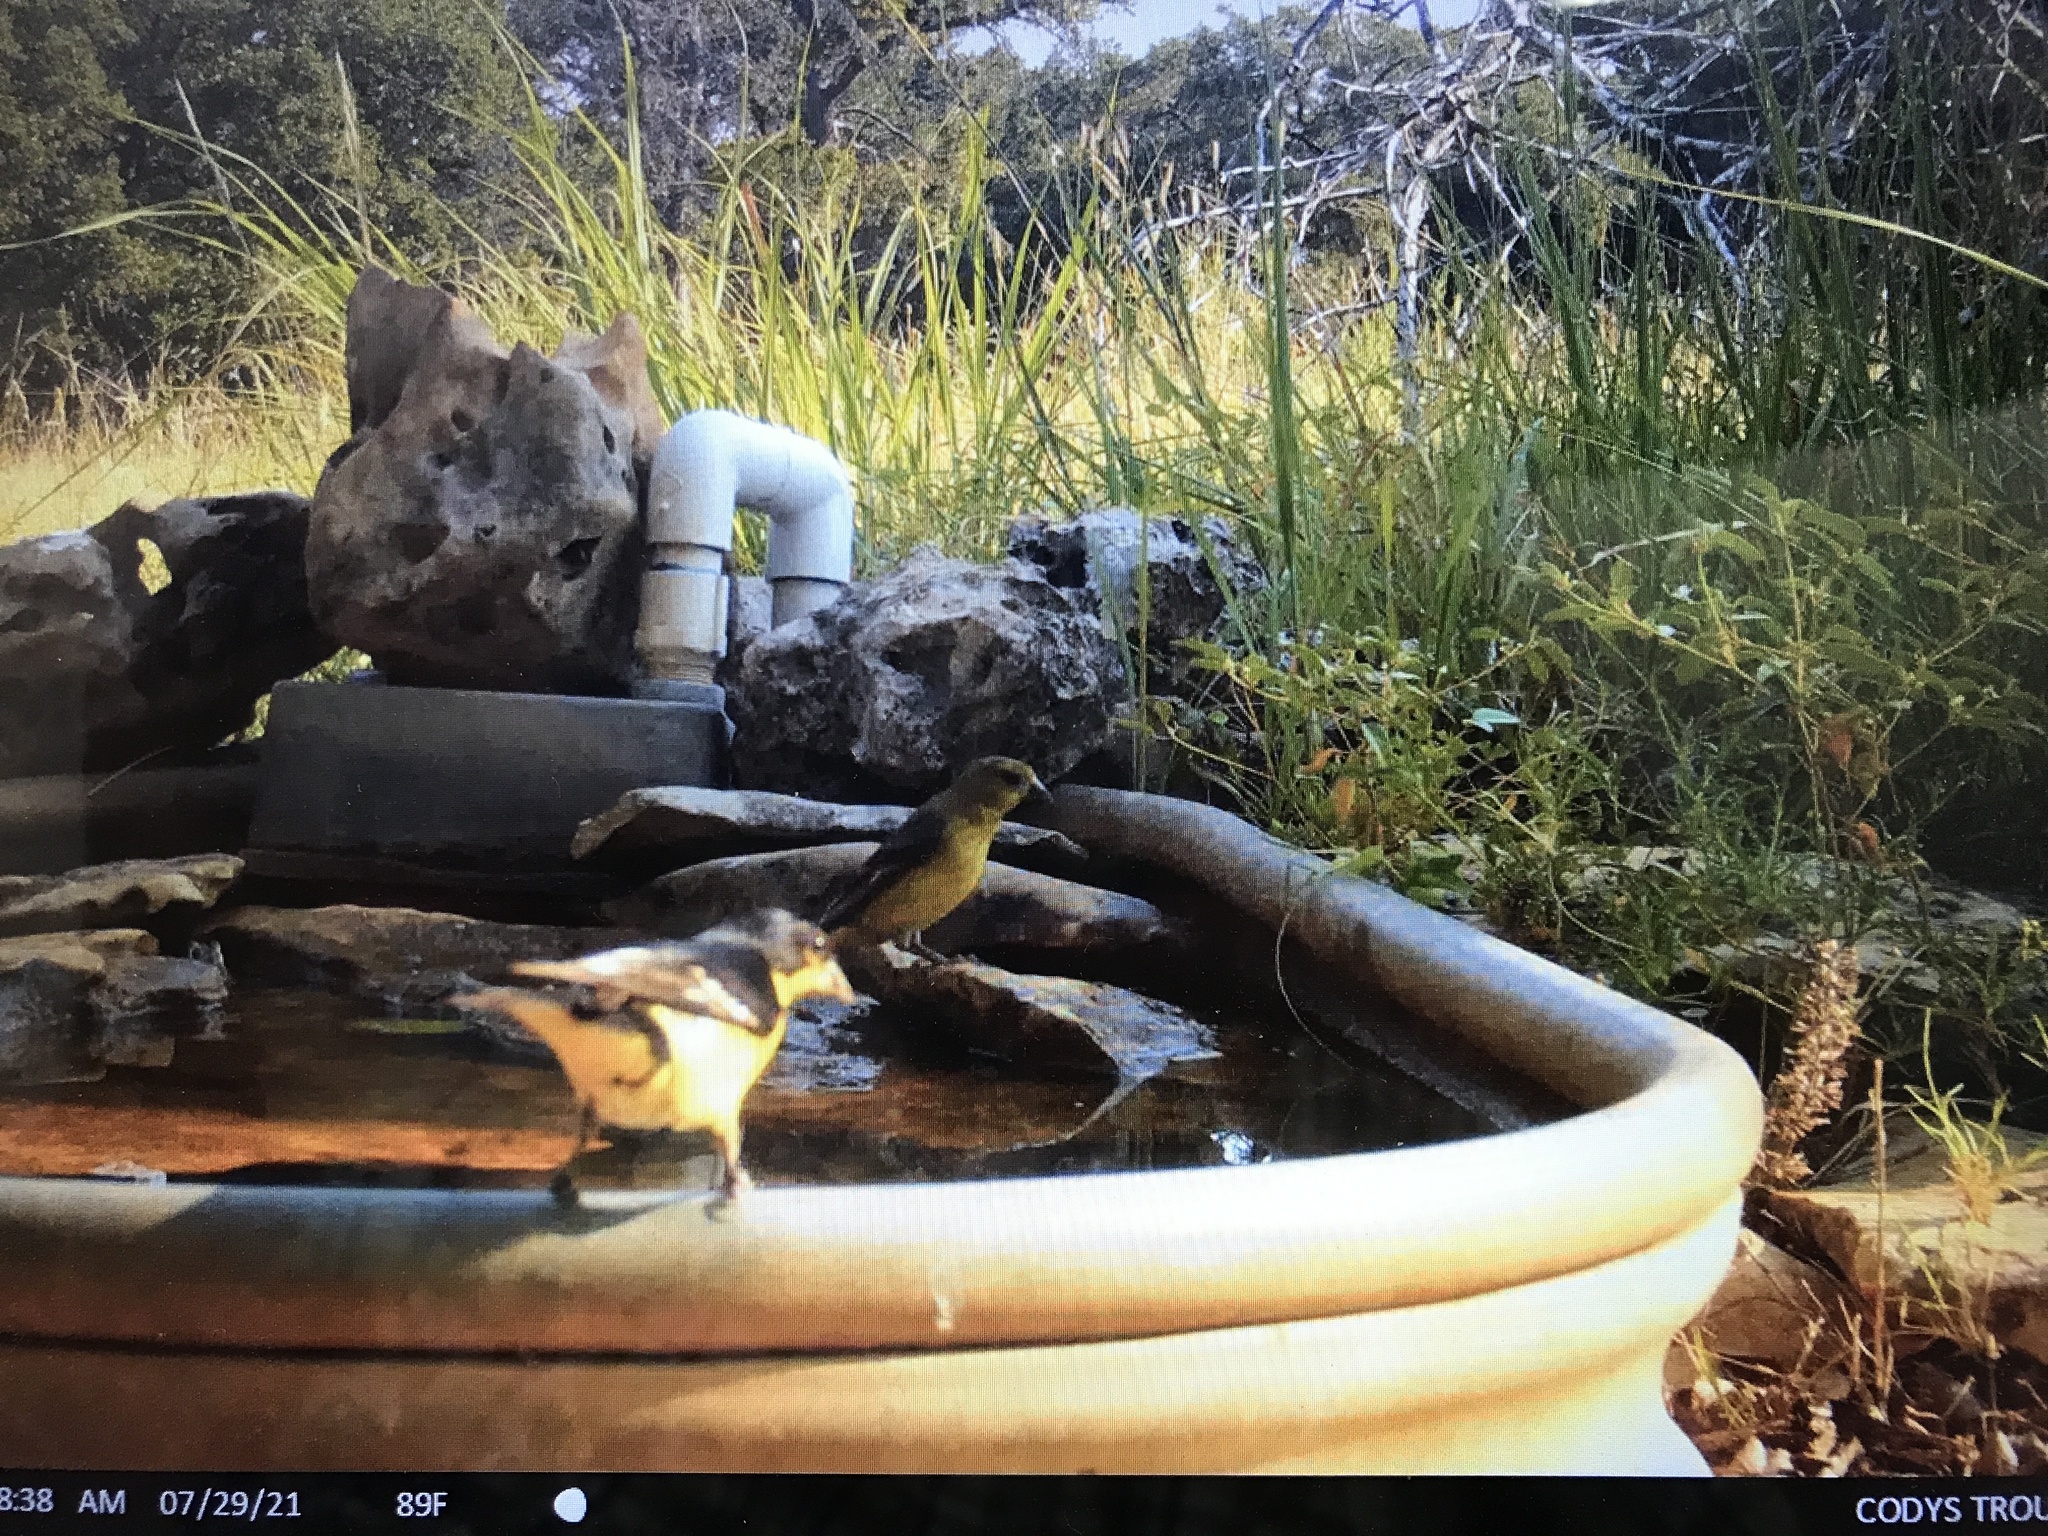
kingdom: Animalia
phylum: Chordata
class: Aves
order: Passeriformes
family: Fringillidae
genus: Spinus
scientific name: Spinus psaltria
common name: Lesser goldfinch
